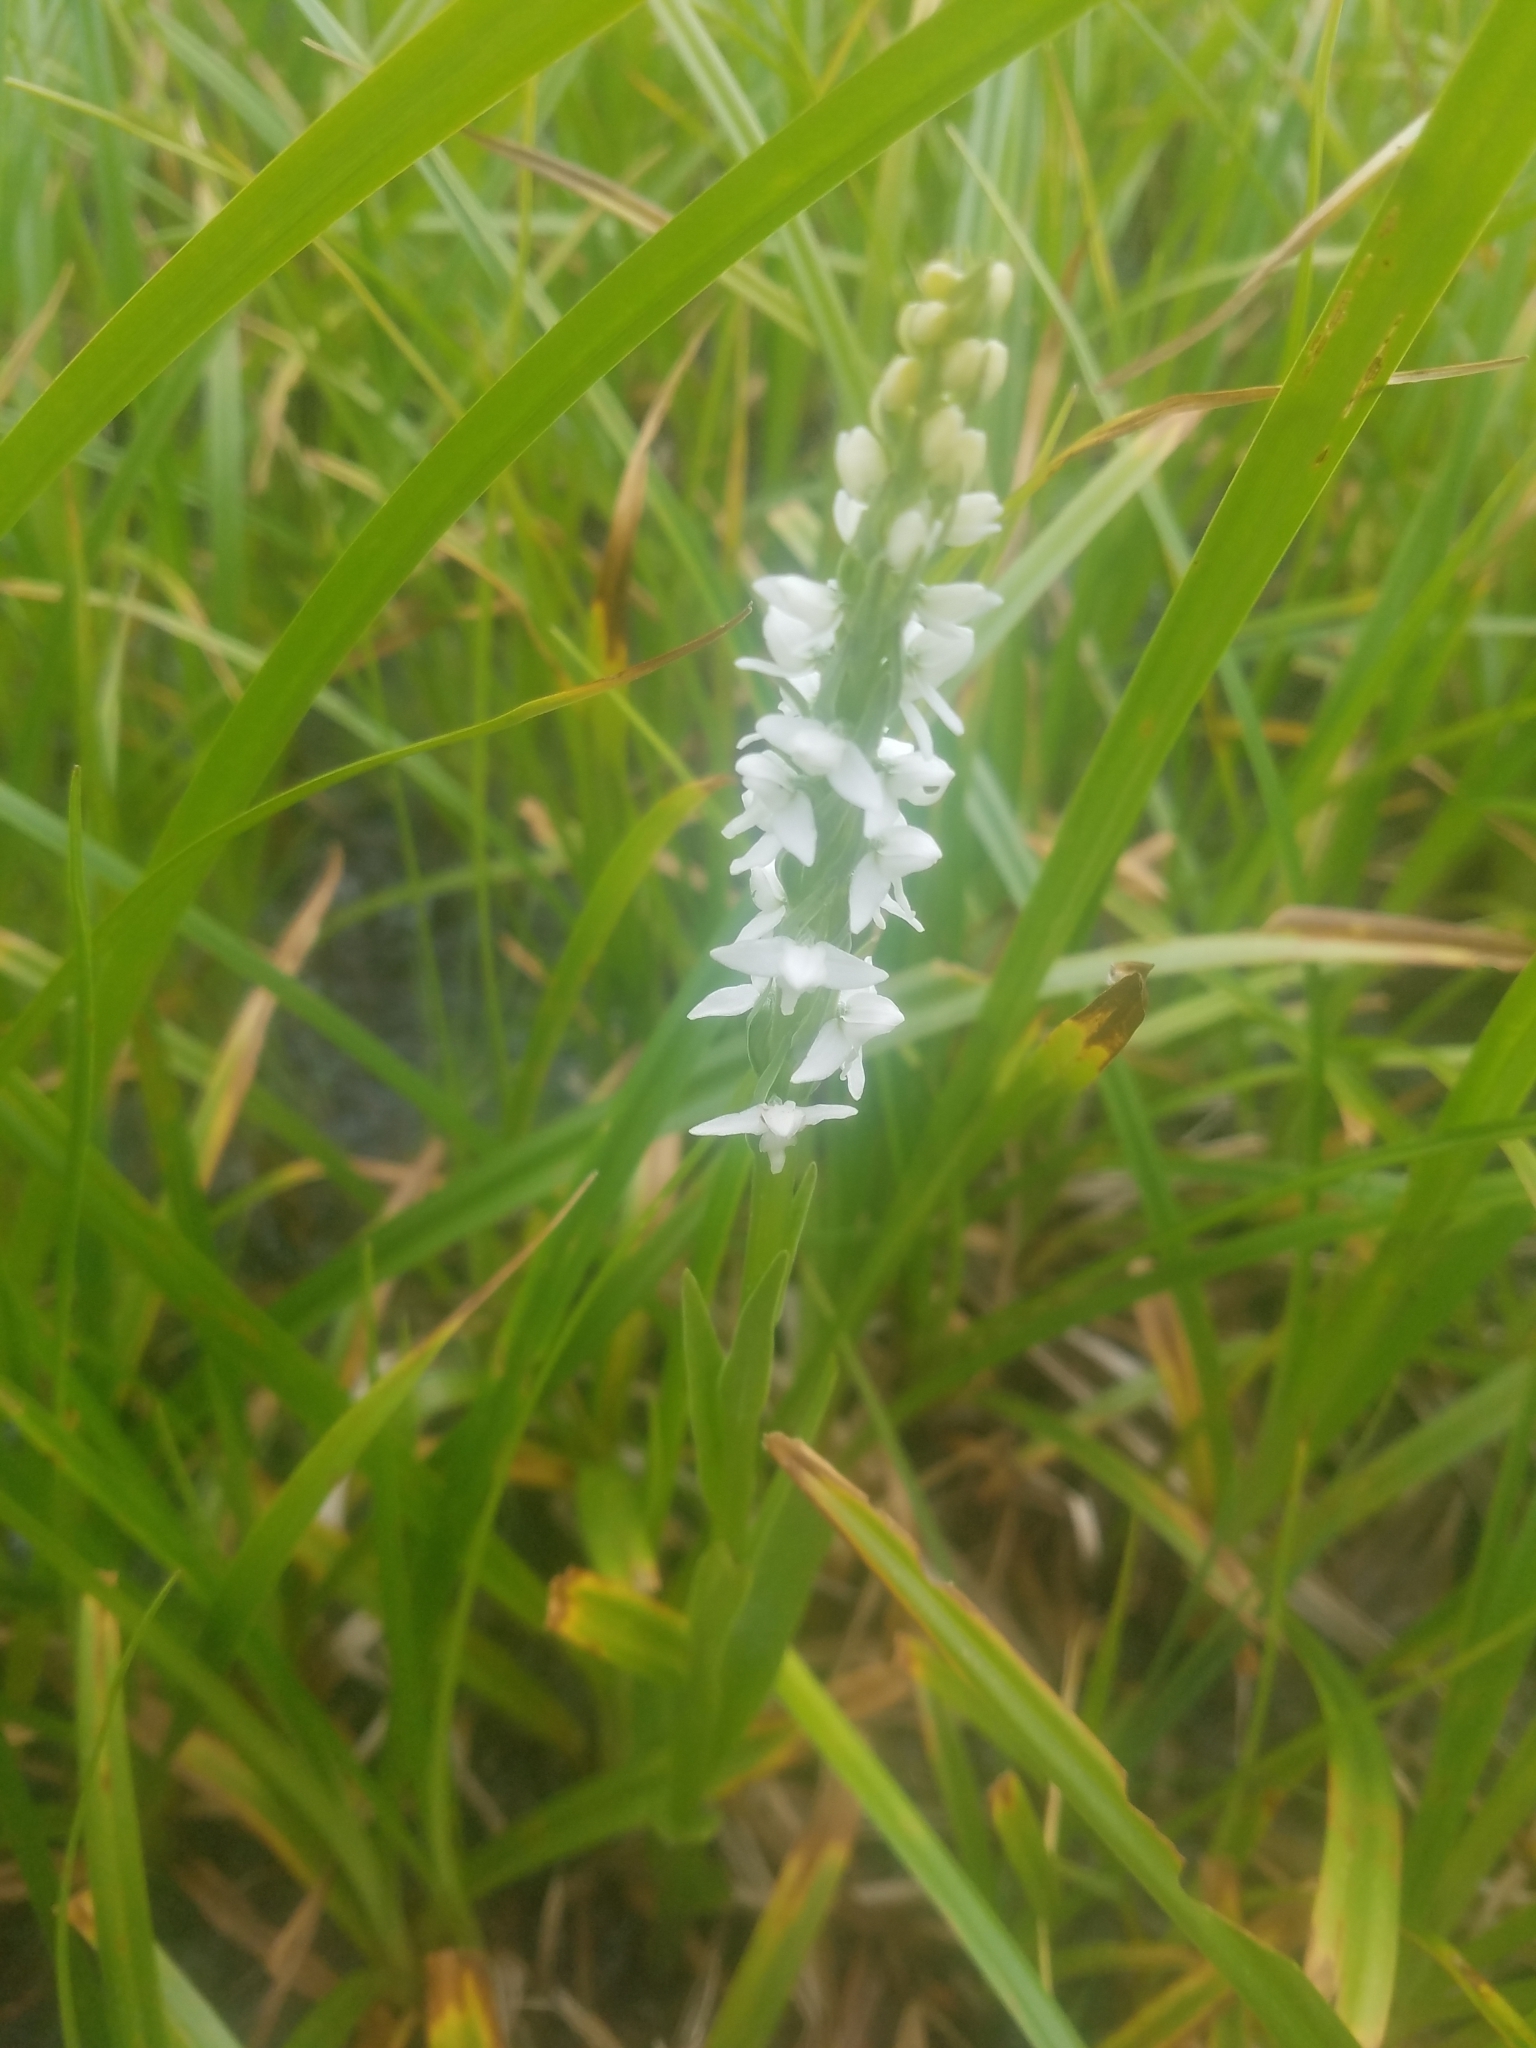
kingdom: Plantae
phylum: Tracheophyta
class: Liliopsida
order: Asparagales
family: Orchidaceae
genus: Platanthera
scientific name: Platanthera dilatata
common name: Bog candles
